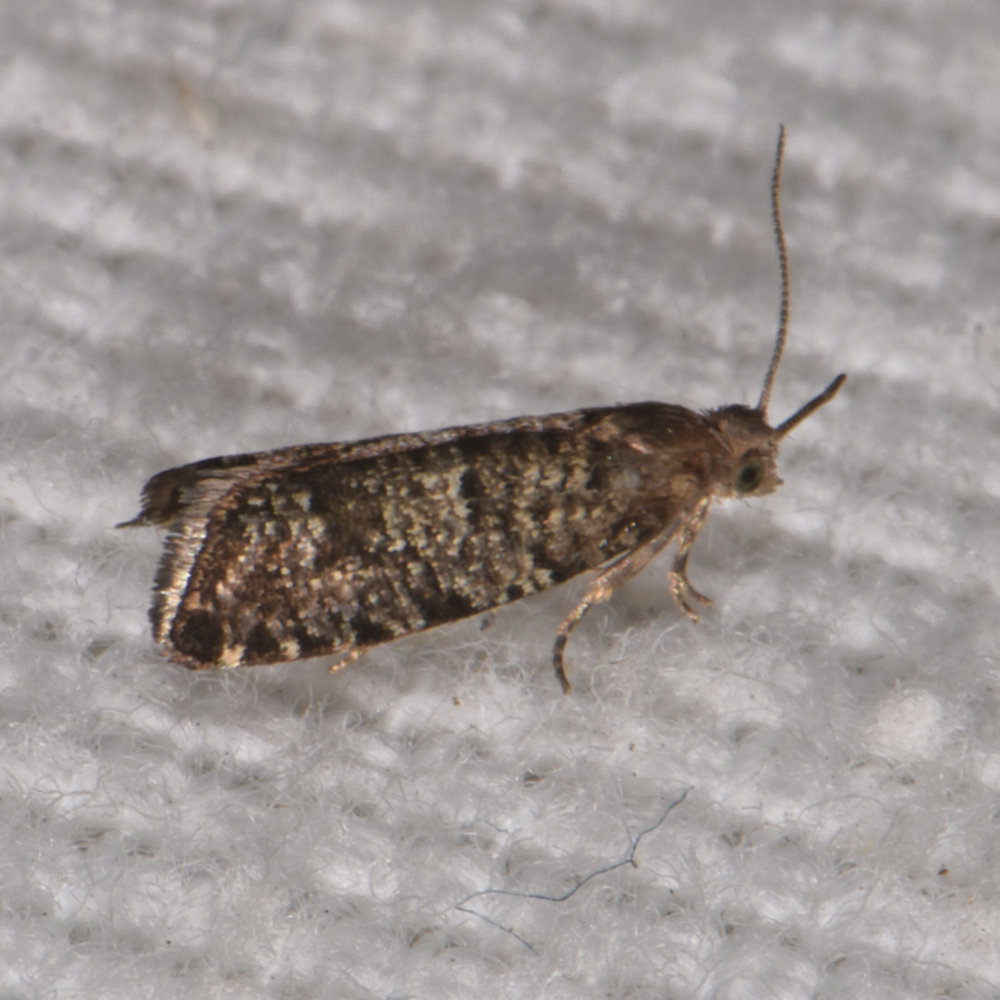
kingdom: Animalia
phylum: Arthropoda
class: Insecta
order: Lepidoptera
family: Tortricidae
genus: Epinotia
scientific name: Epinotia nanana
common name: Leaf roller
